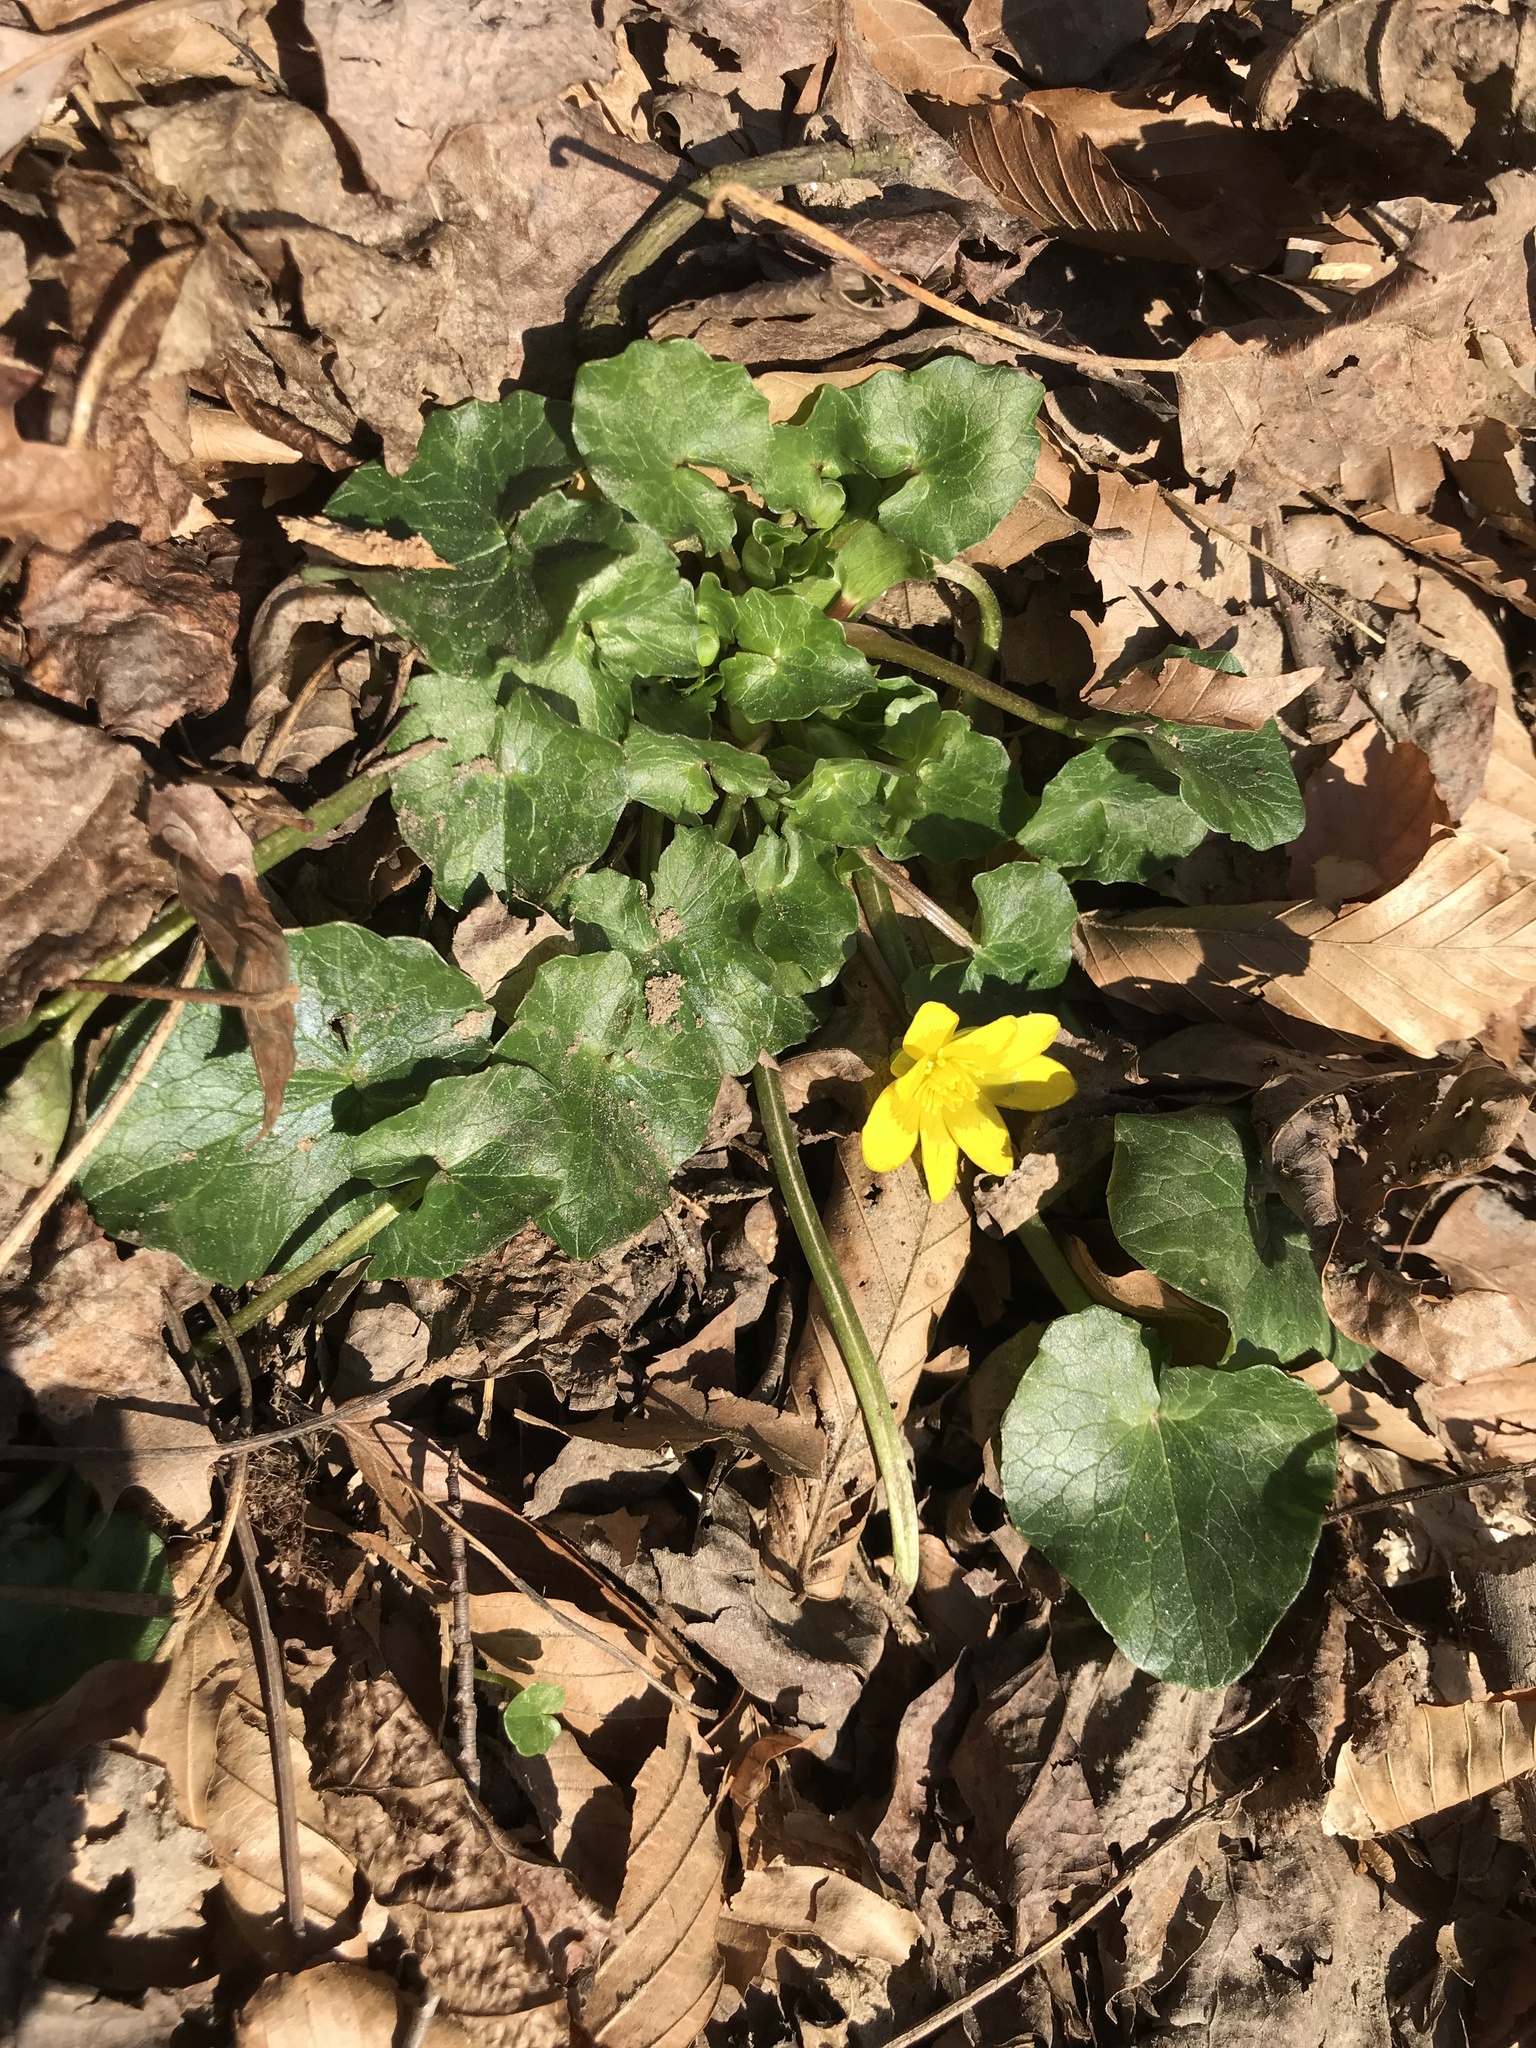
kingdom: Plantae
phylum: Tracheophyta
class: Magnoliopsida
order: Ranunculales
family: Ranunculaceae
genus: Ficaria
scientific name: Ficaria verna
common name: Lesser celandine
